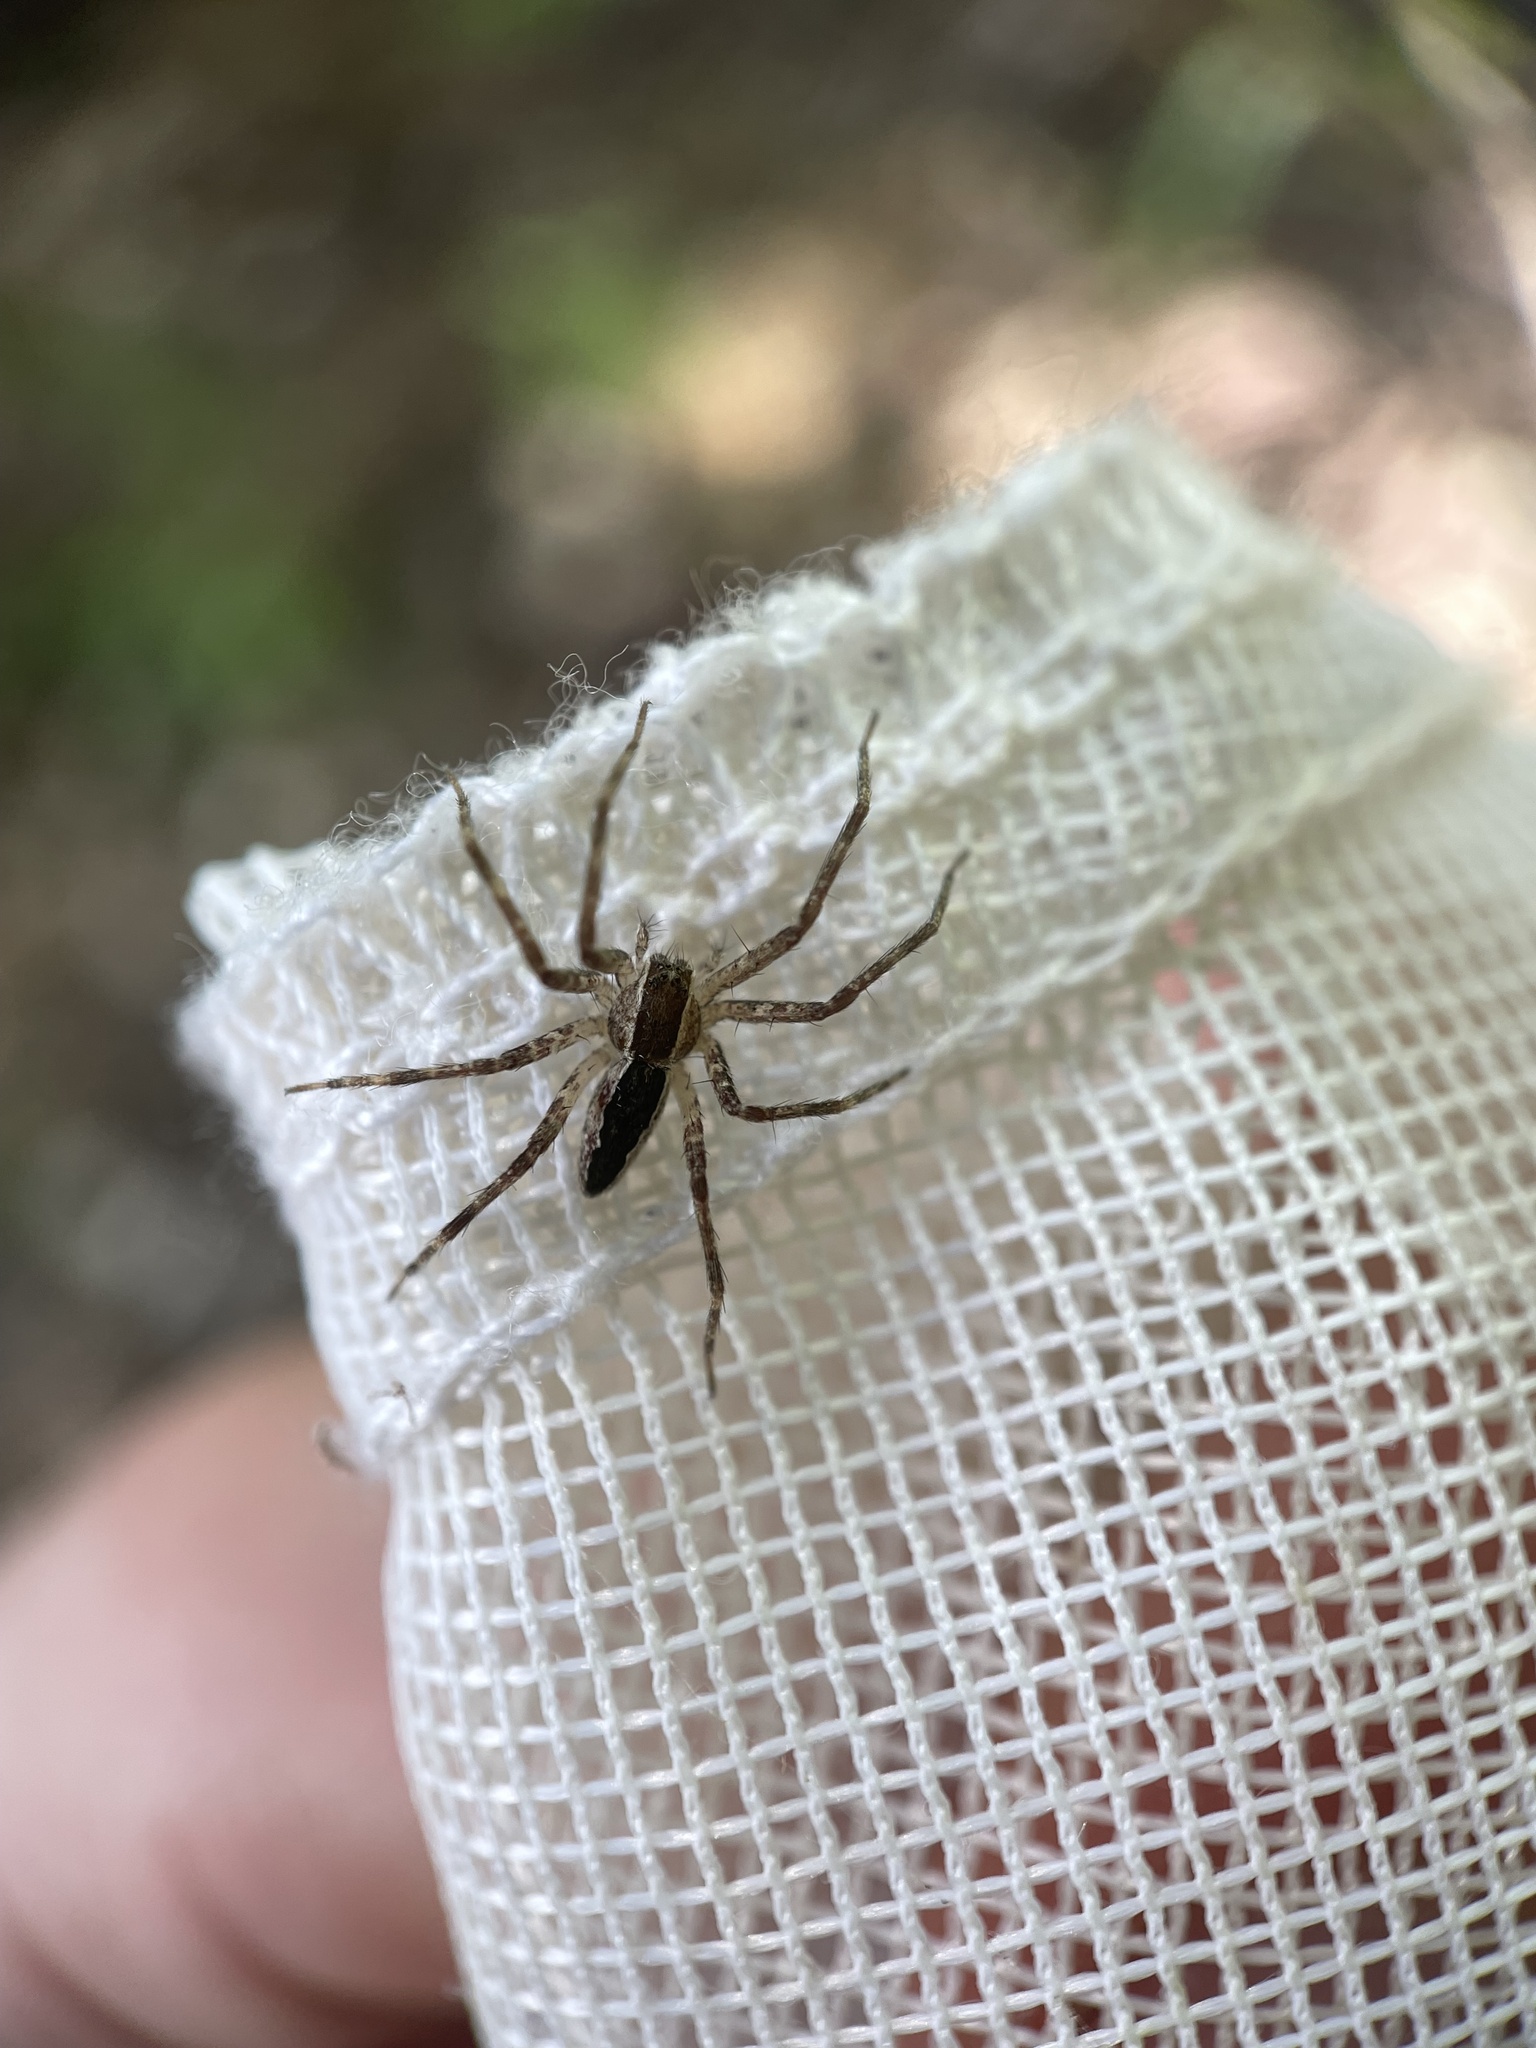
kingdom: Animalia
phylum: Arthropoda
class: Arachnida
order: Araneae
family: Pisauridae
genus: Pisaurina
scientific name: Pisaurina mira
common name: American nursery web spider
